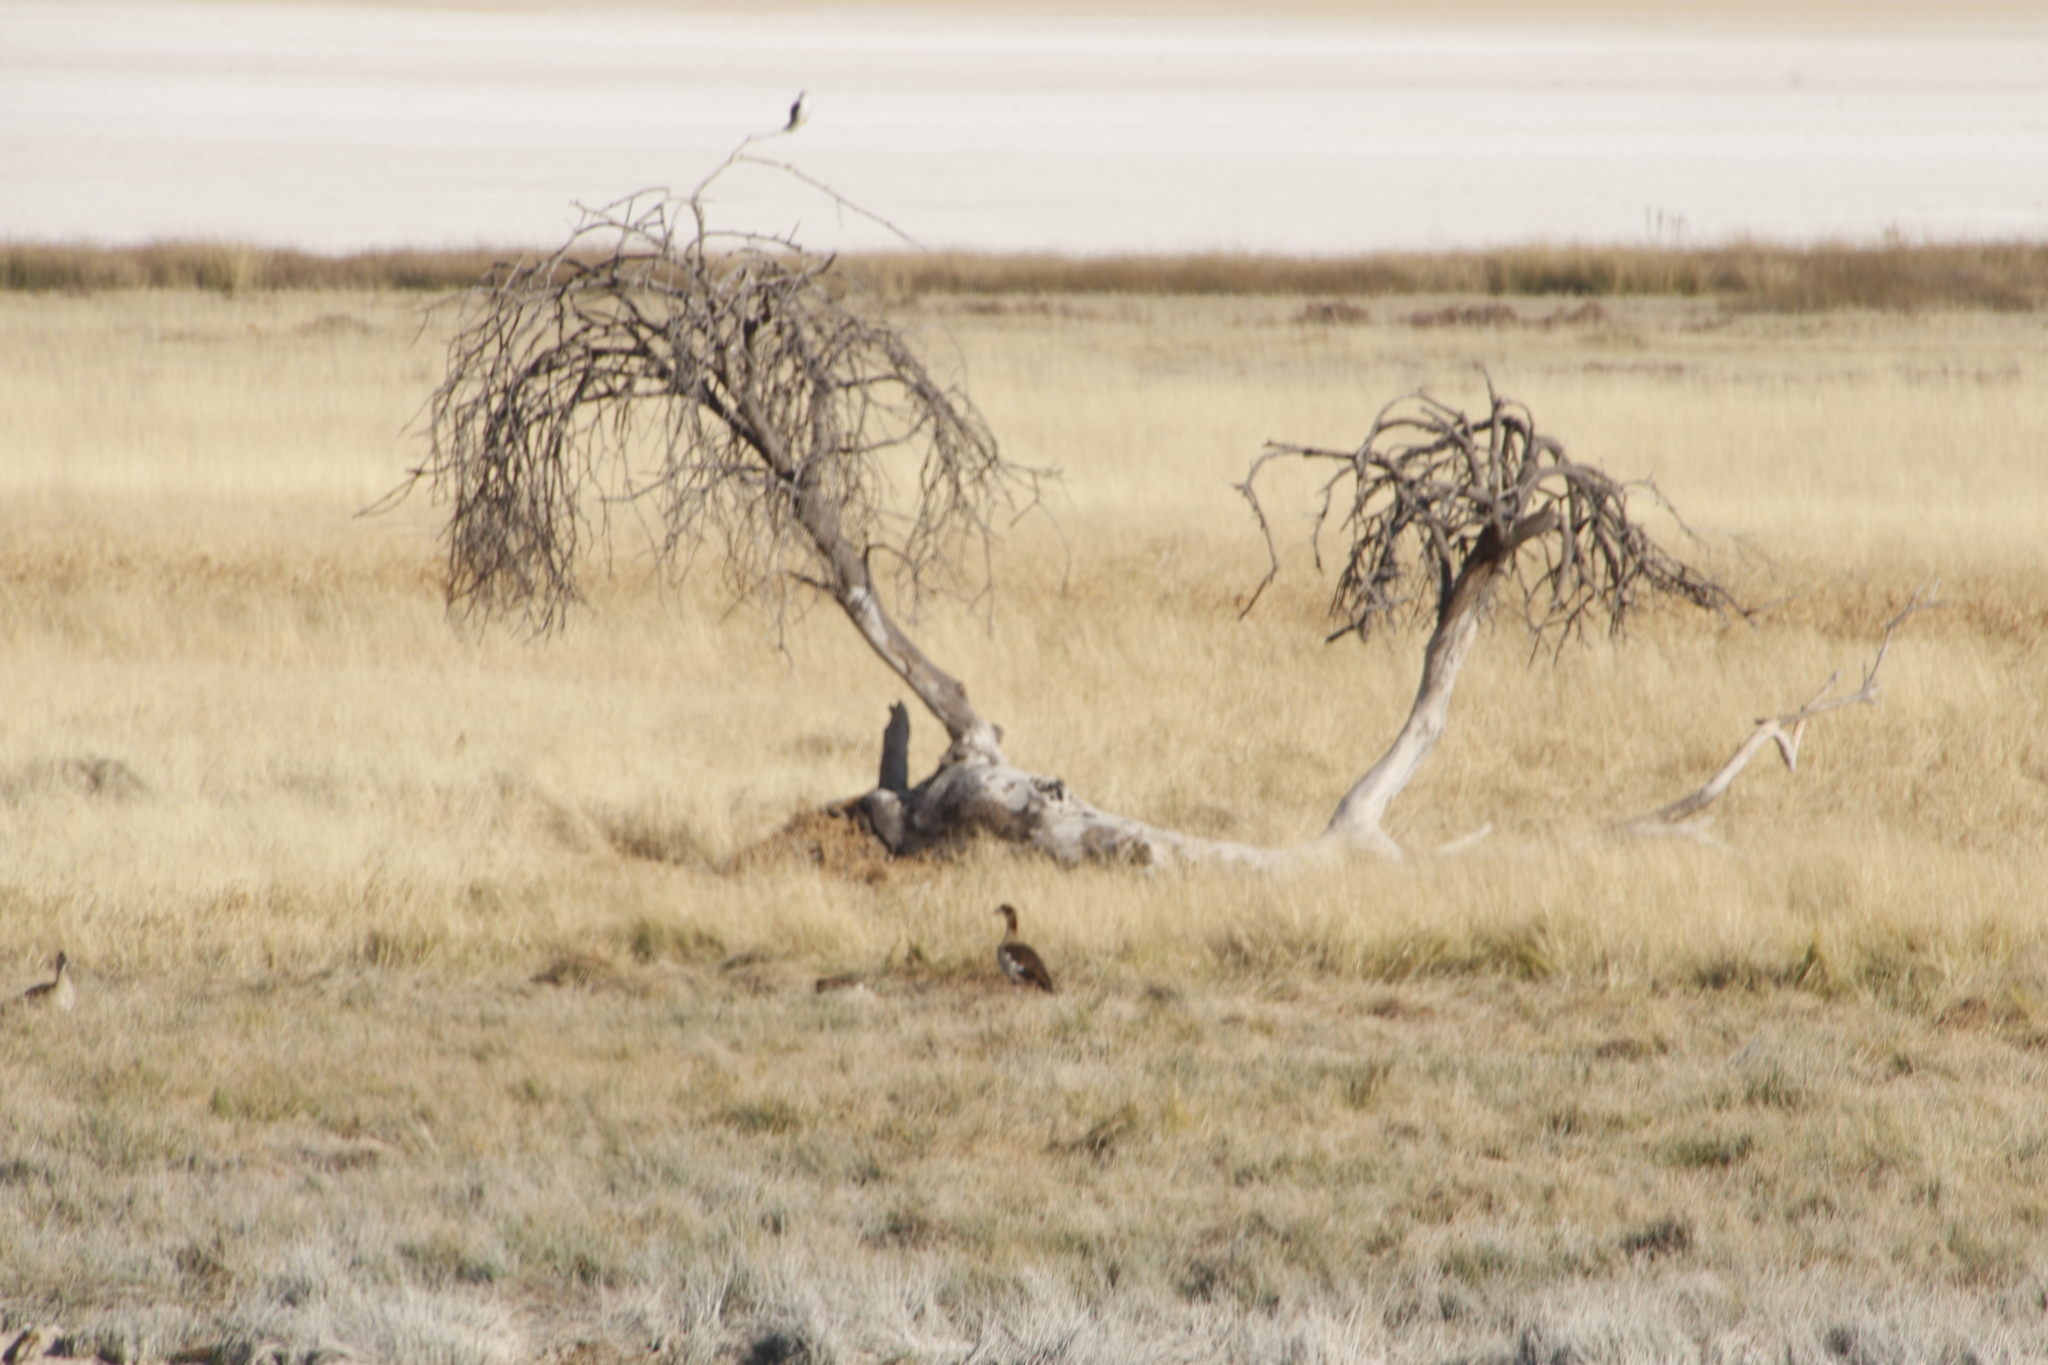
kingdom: Animalia
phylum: Chordata
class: Aves
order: Anseriformes
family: Anatidae
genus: Alopochen
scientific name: Alopochen aegyptiaca
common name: Egyptian goose
